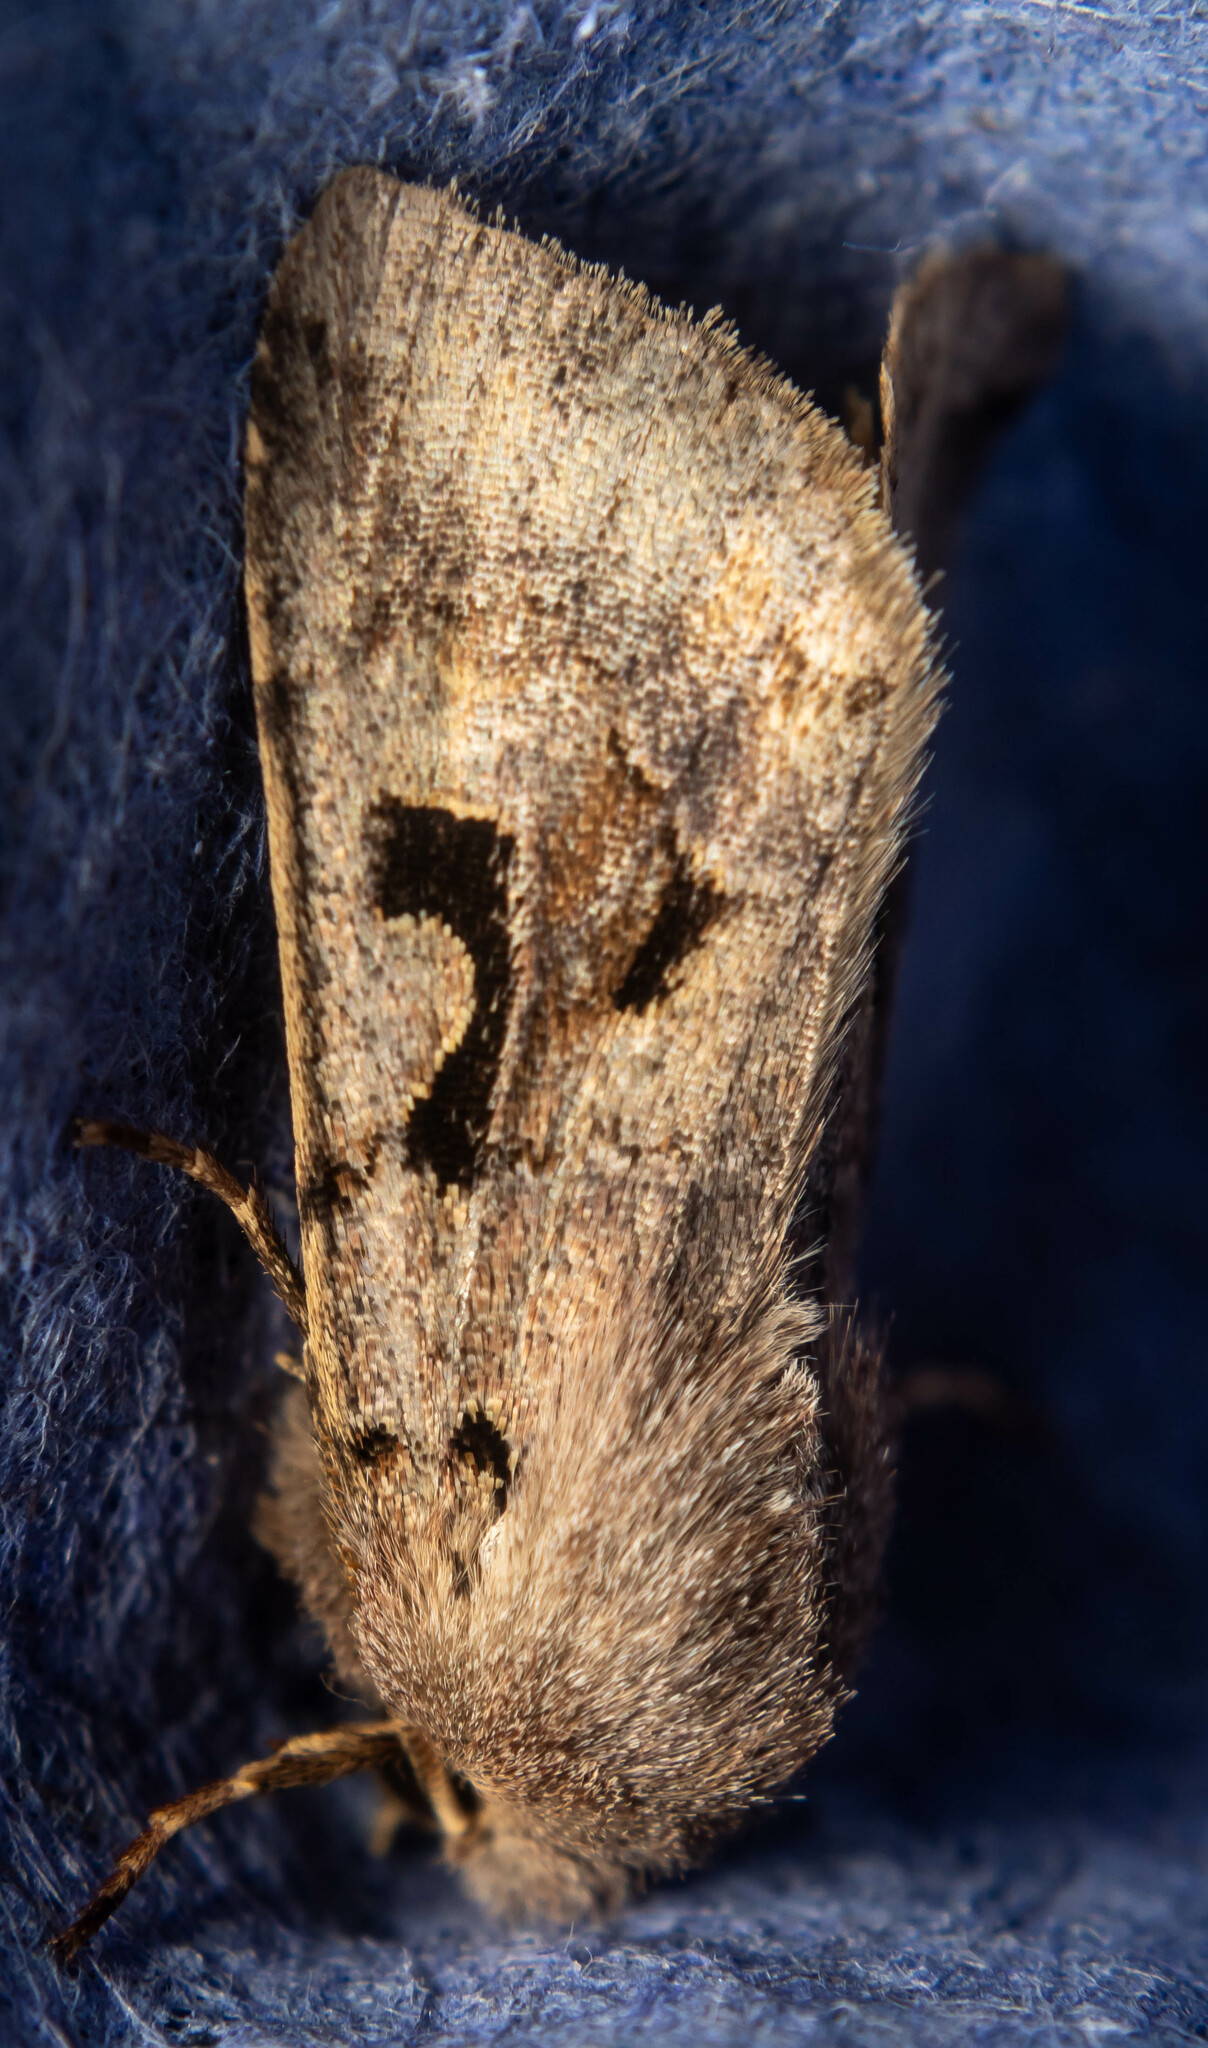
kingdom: Animalia
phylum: Arthropoda
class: Insecta
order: Lepidoptera
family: Noctuidae
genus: Orthosia
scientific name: Orthosia gothica
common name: Hebrew character
